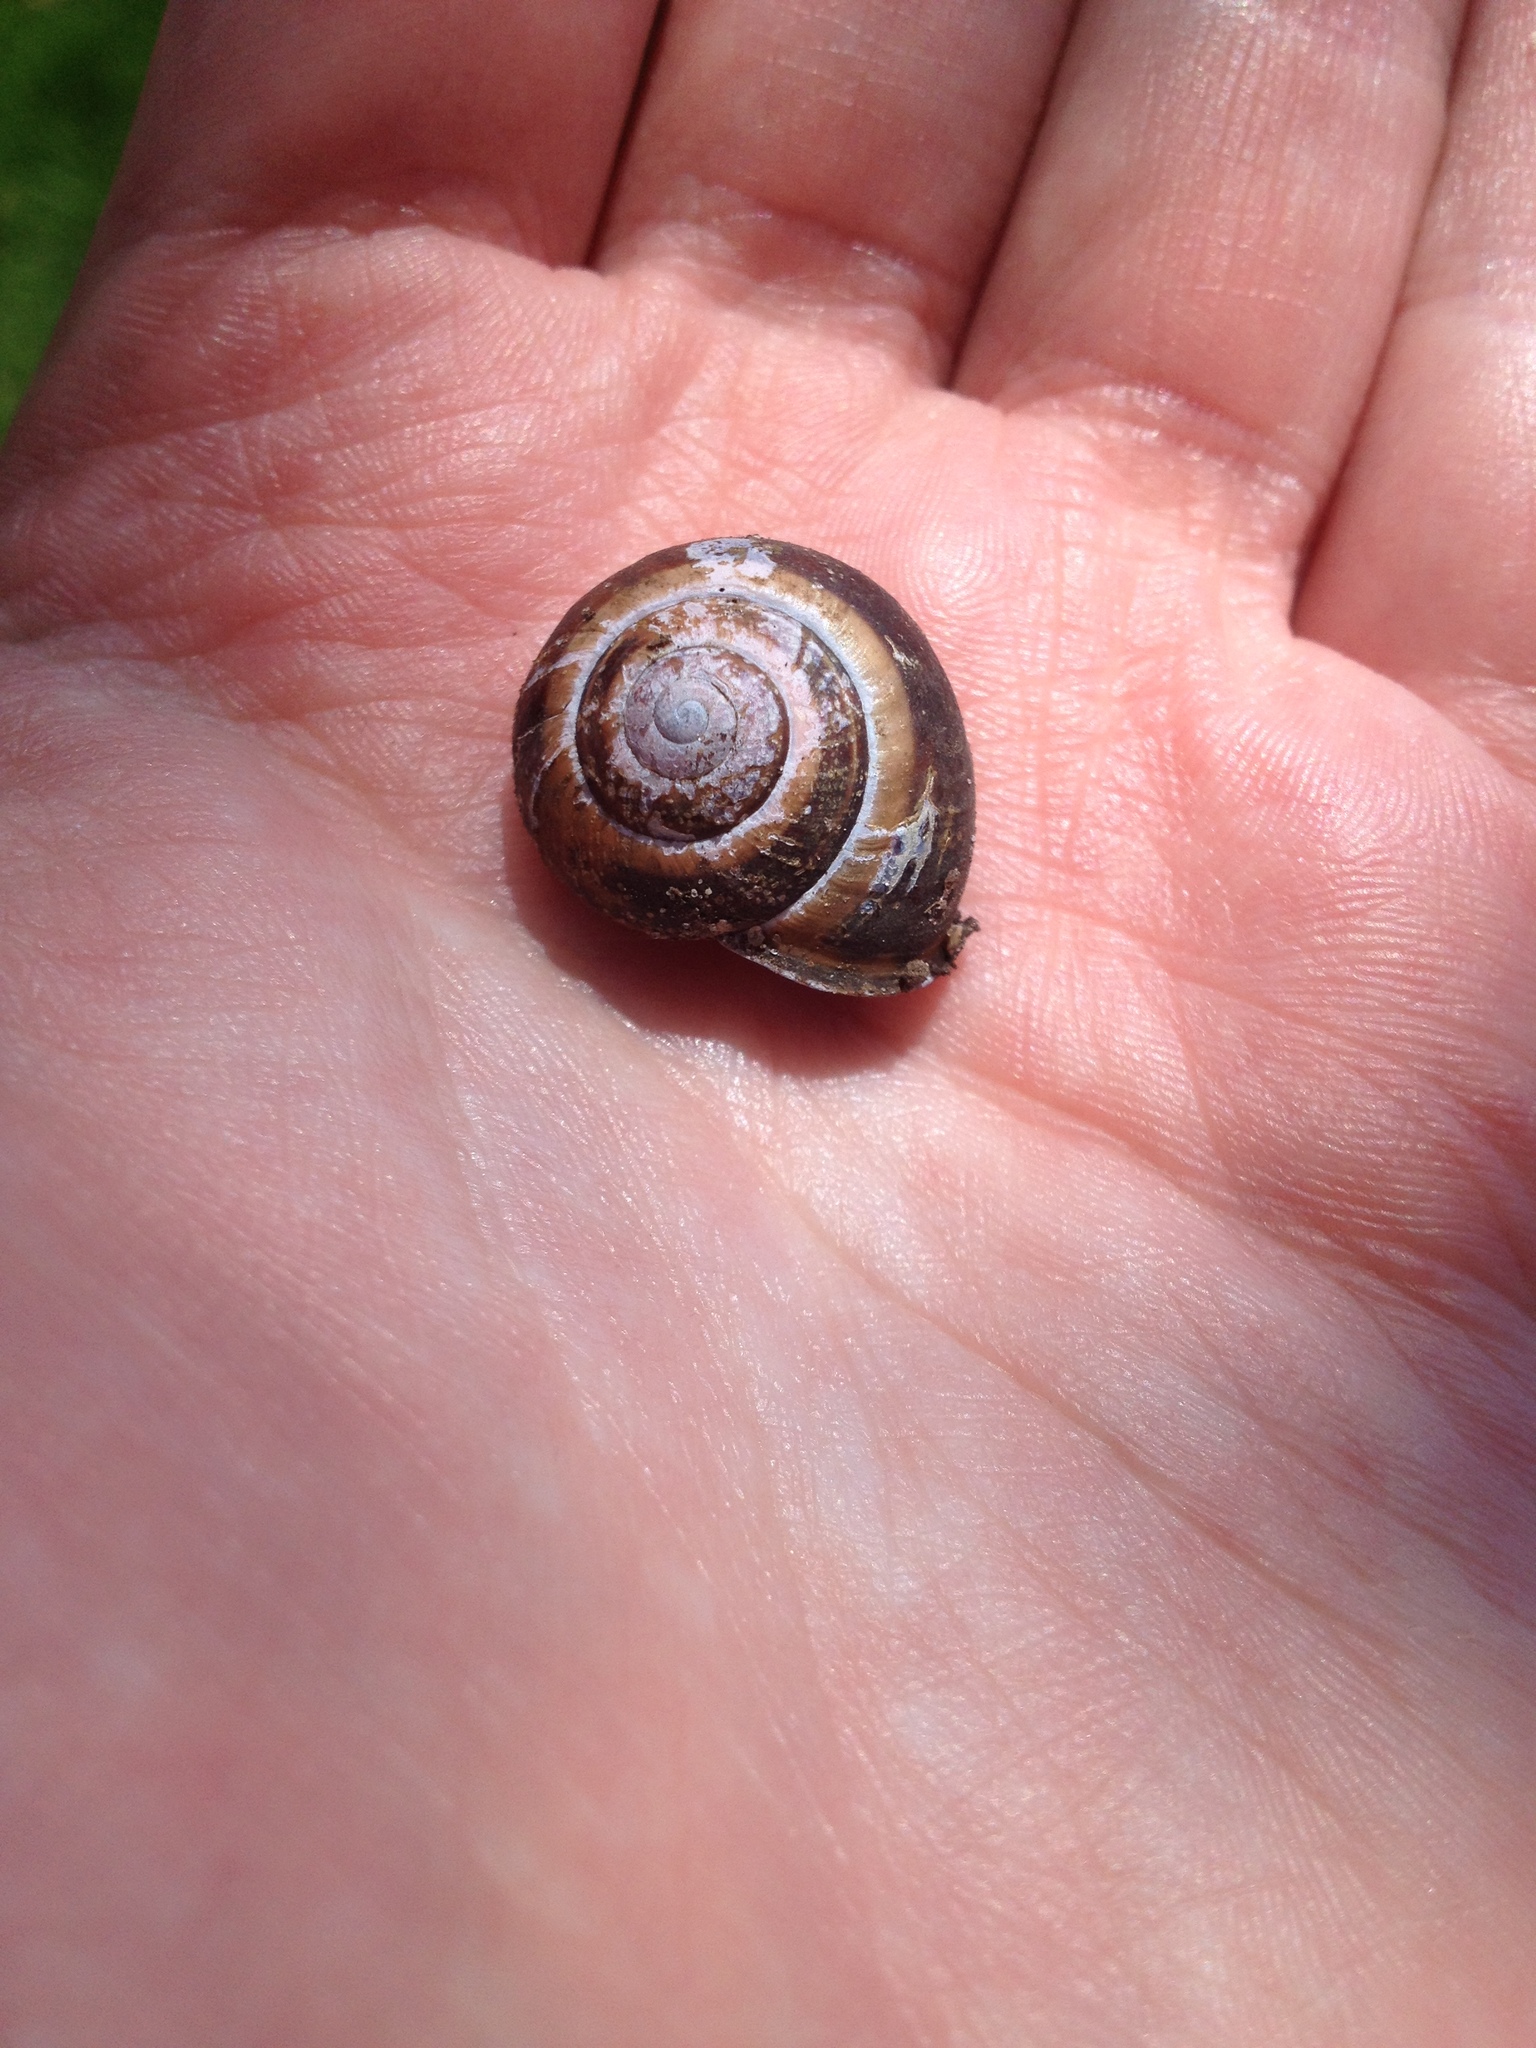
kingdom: Animalia
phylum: Mollusca
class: Gastropoda
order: Stylommatophora
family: Helicidae
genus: Cepaea
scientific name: Cepaea nemoralis
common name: Grovesnail
